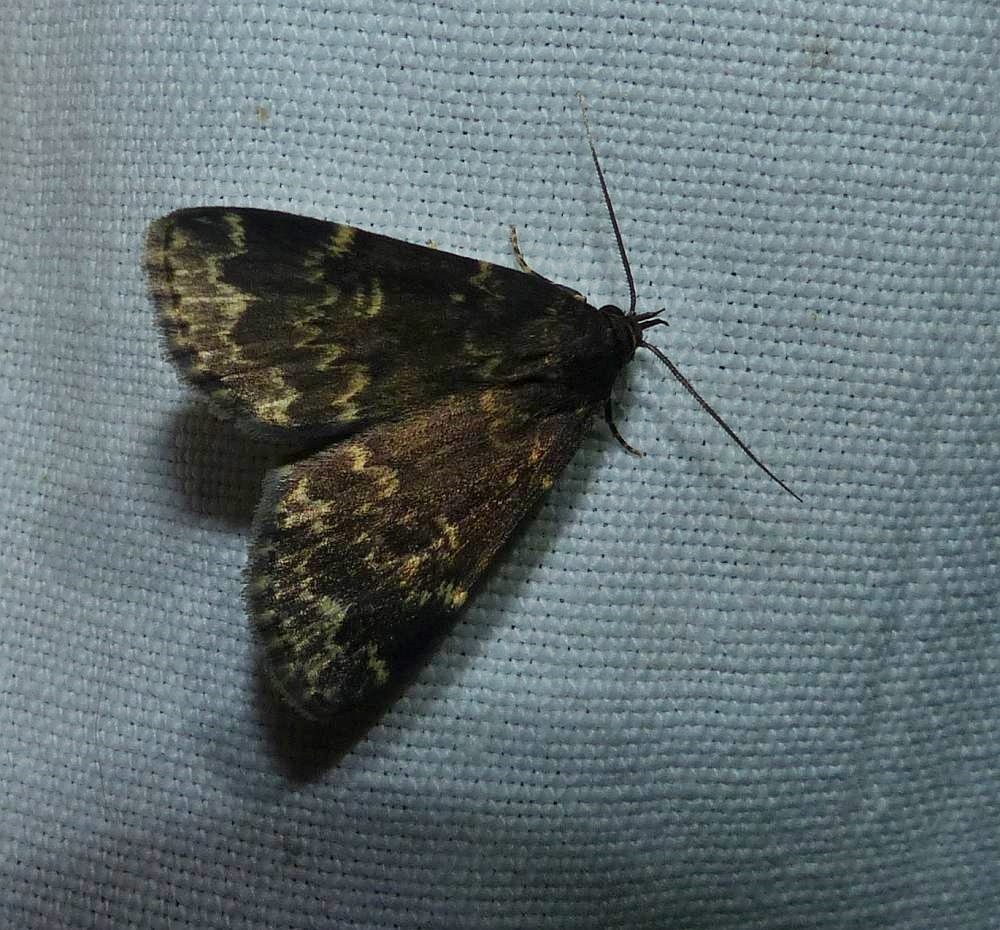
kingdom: Animalia
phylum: Arthropoda
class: Insecta
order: Lepidoptera
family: Erebidae
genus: Idia
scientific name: Idia lubricalis
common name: Twin-striped tabby
